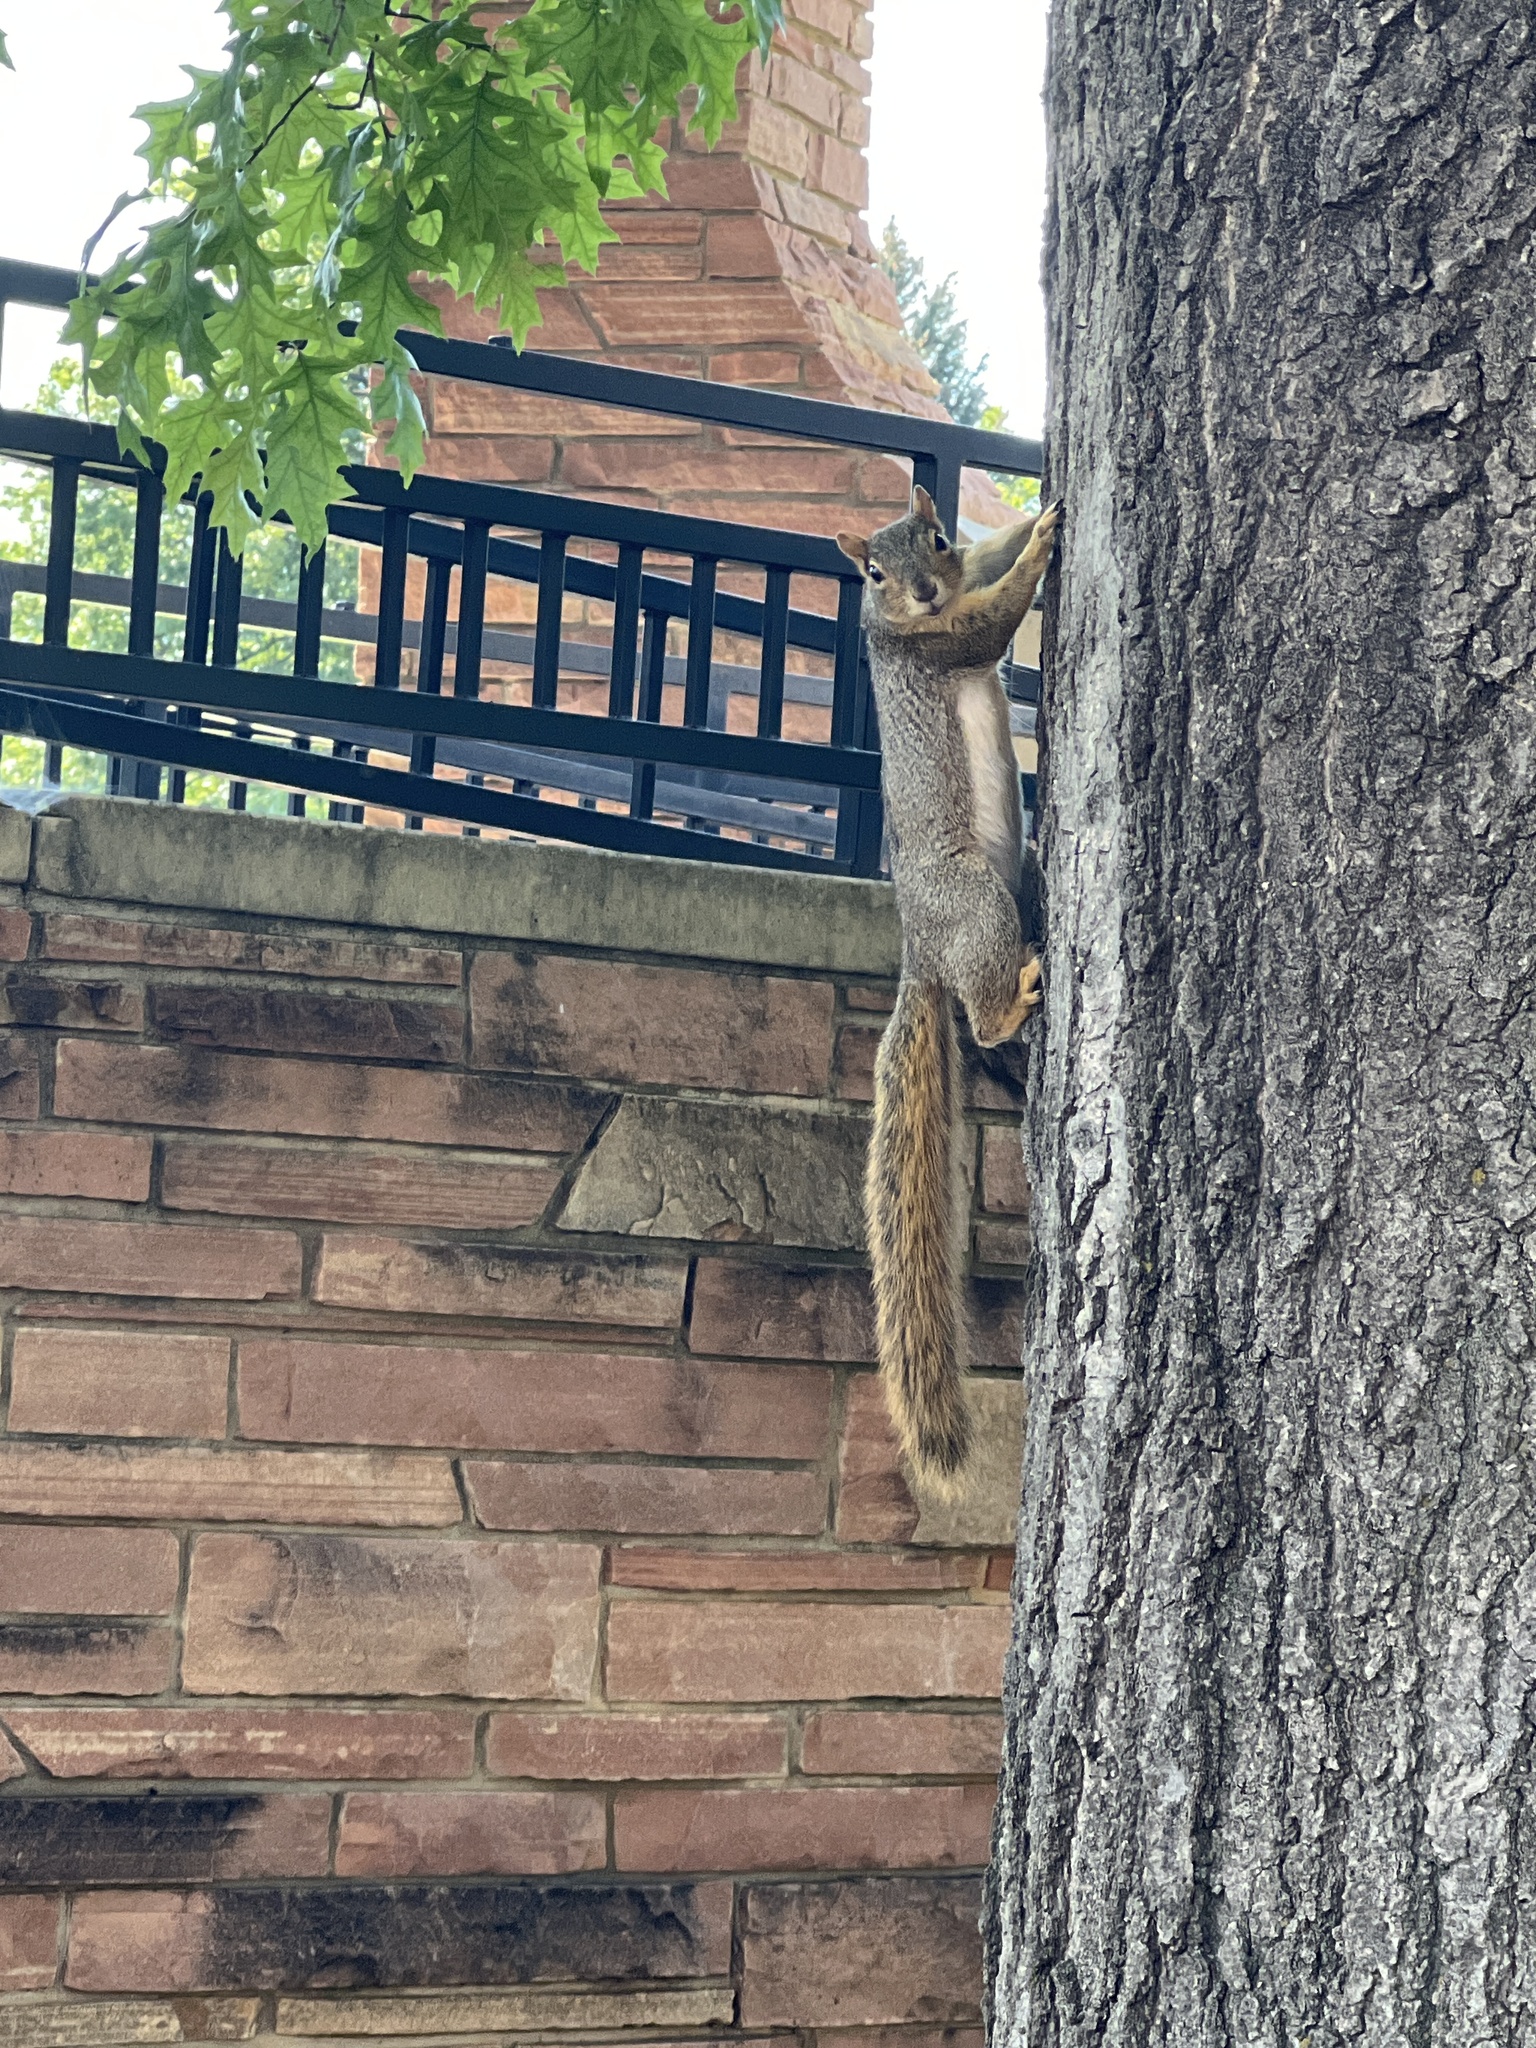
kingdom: Animalia
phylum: Chordata
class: Mammalia
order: Rodentia
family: Sciuridae
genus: Sciurus
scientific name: Sciurus niger
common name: Fox squirrel
